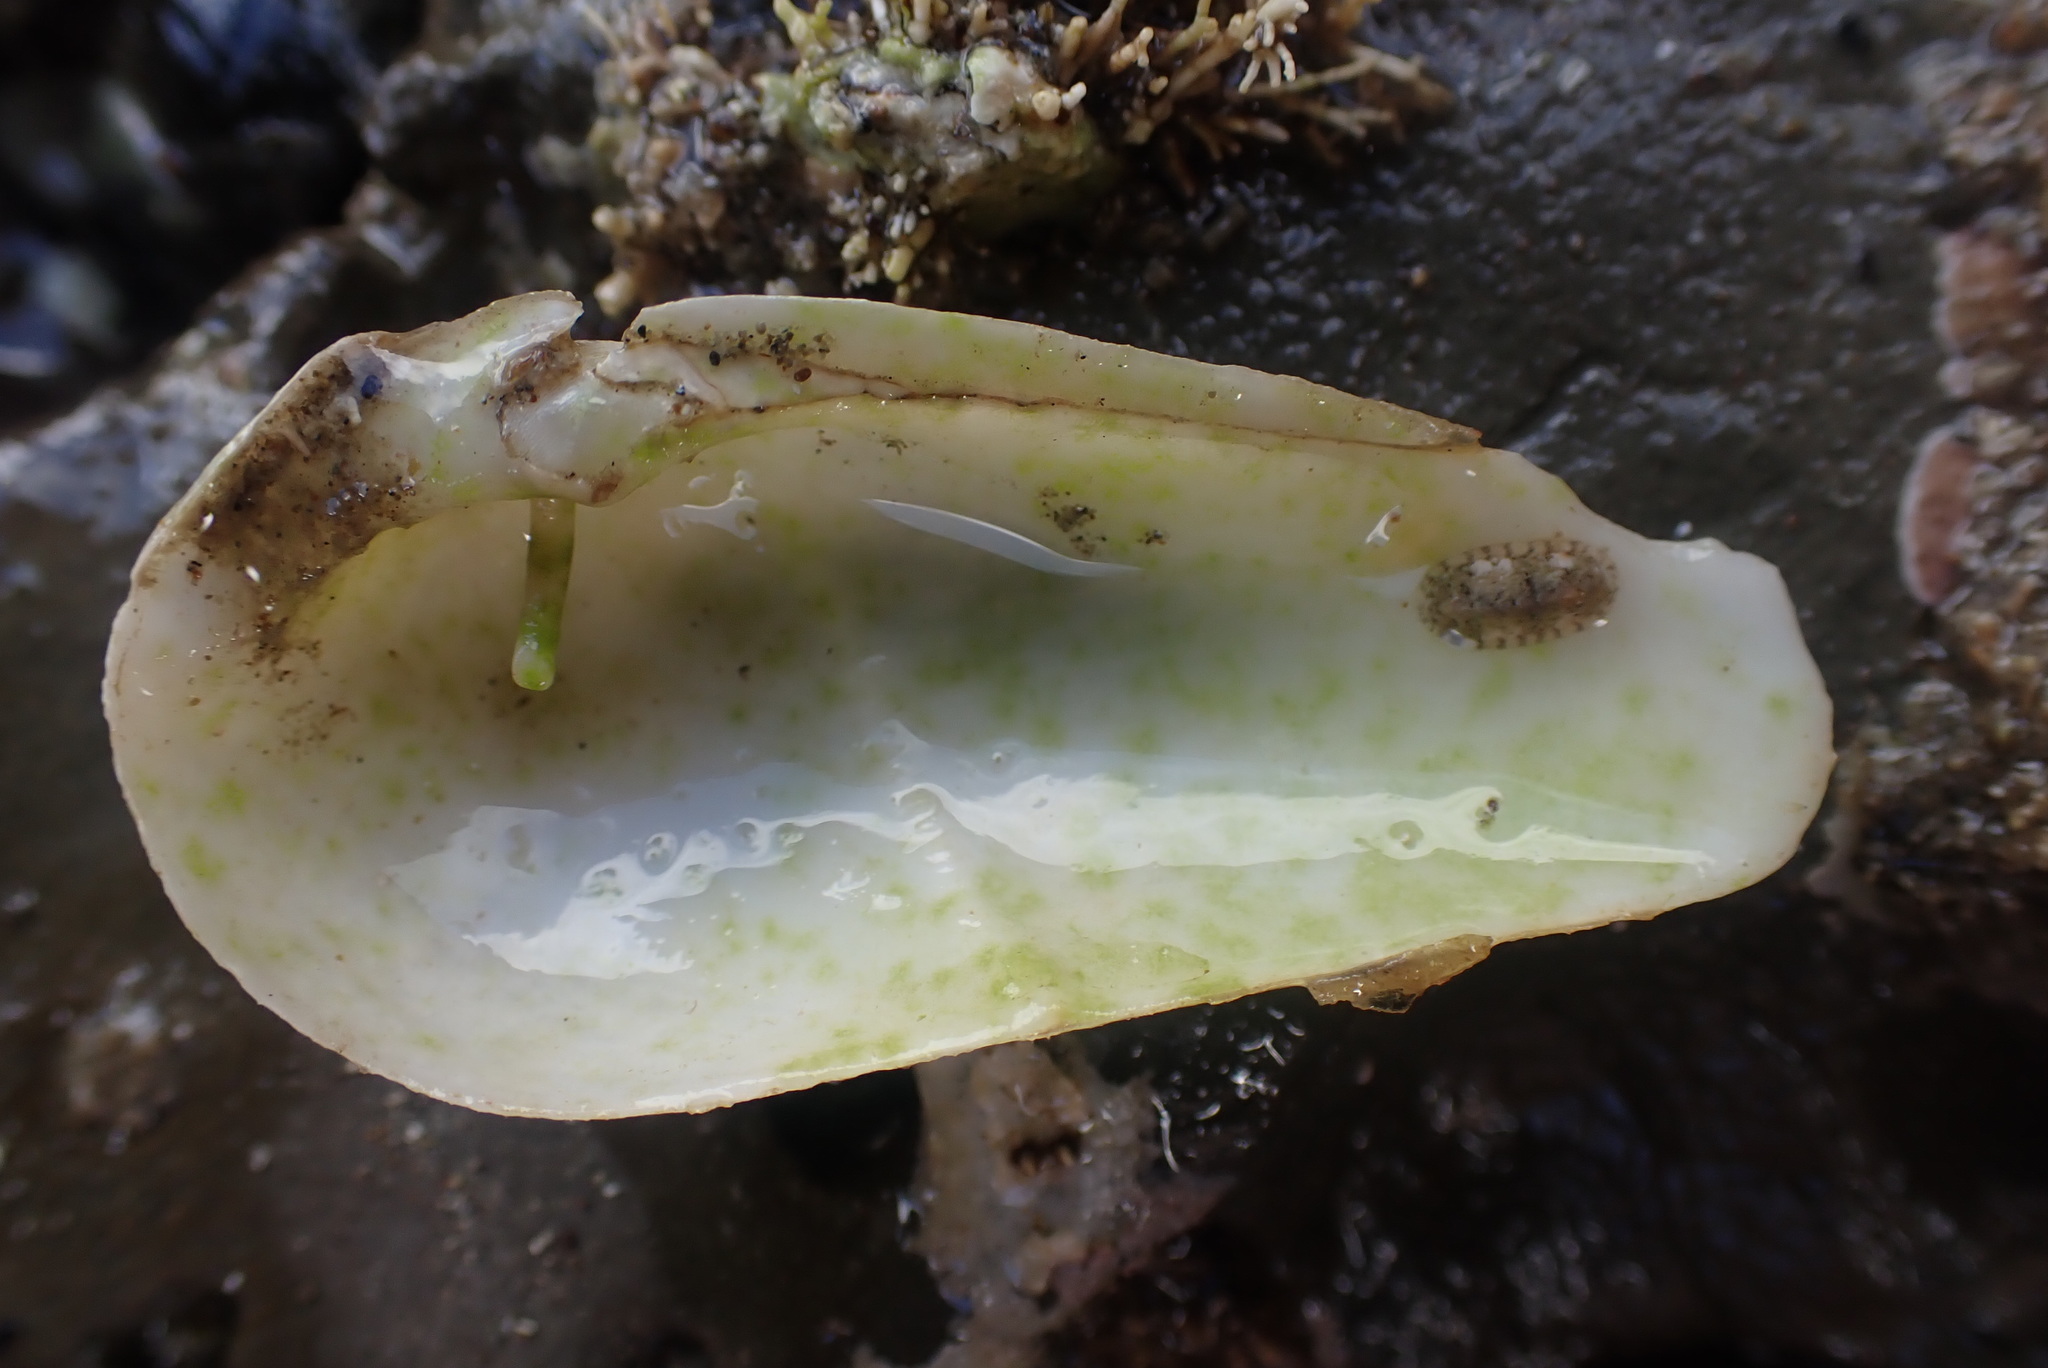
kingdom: Animalia
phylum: Mollusca
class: Bivalvia
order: Myida
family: Pholadidae
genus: Pholadidea
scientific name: Pholadidea suteri
